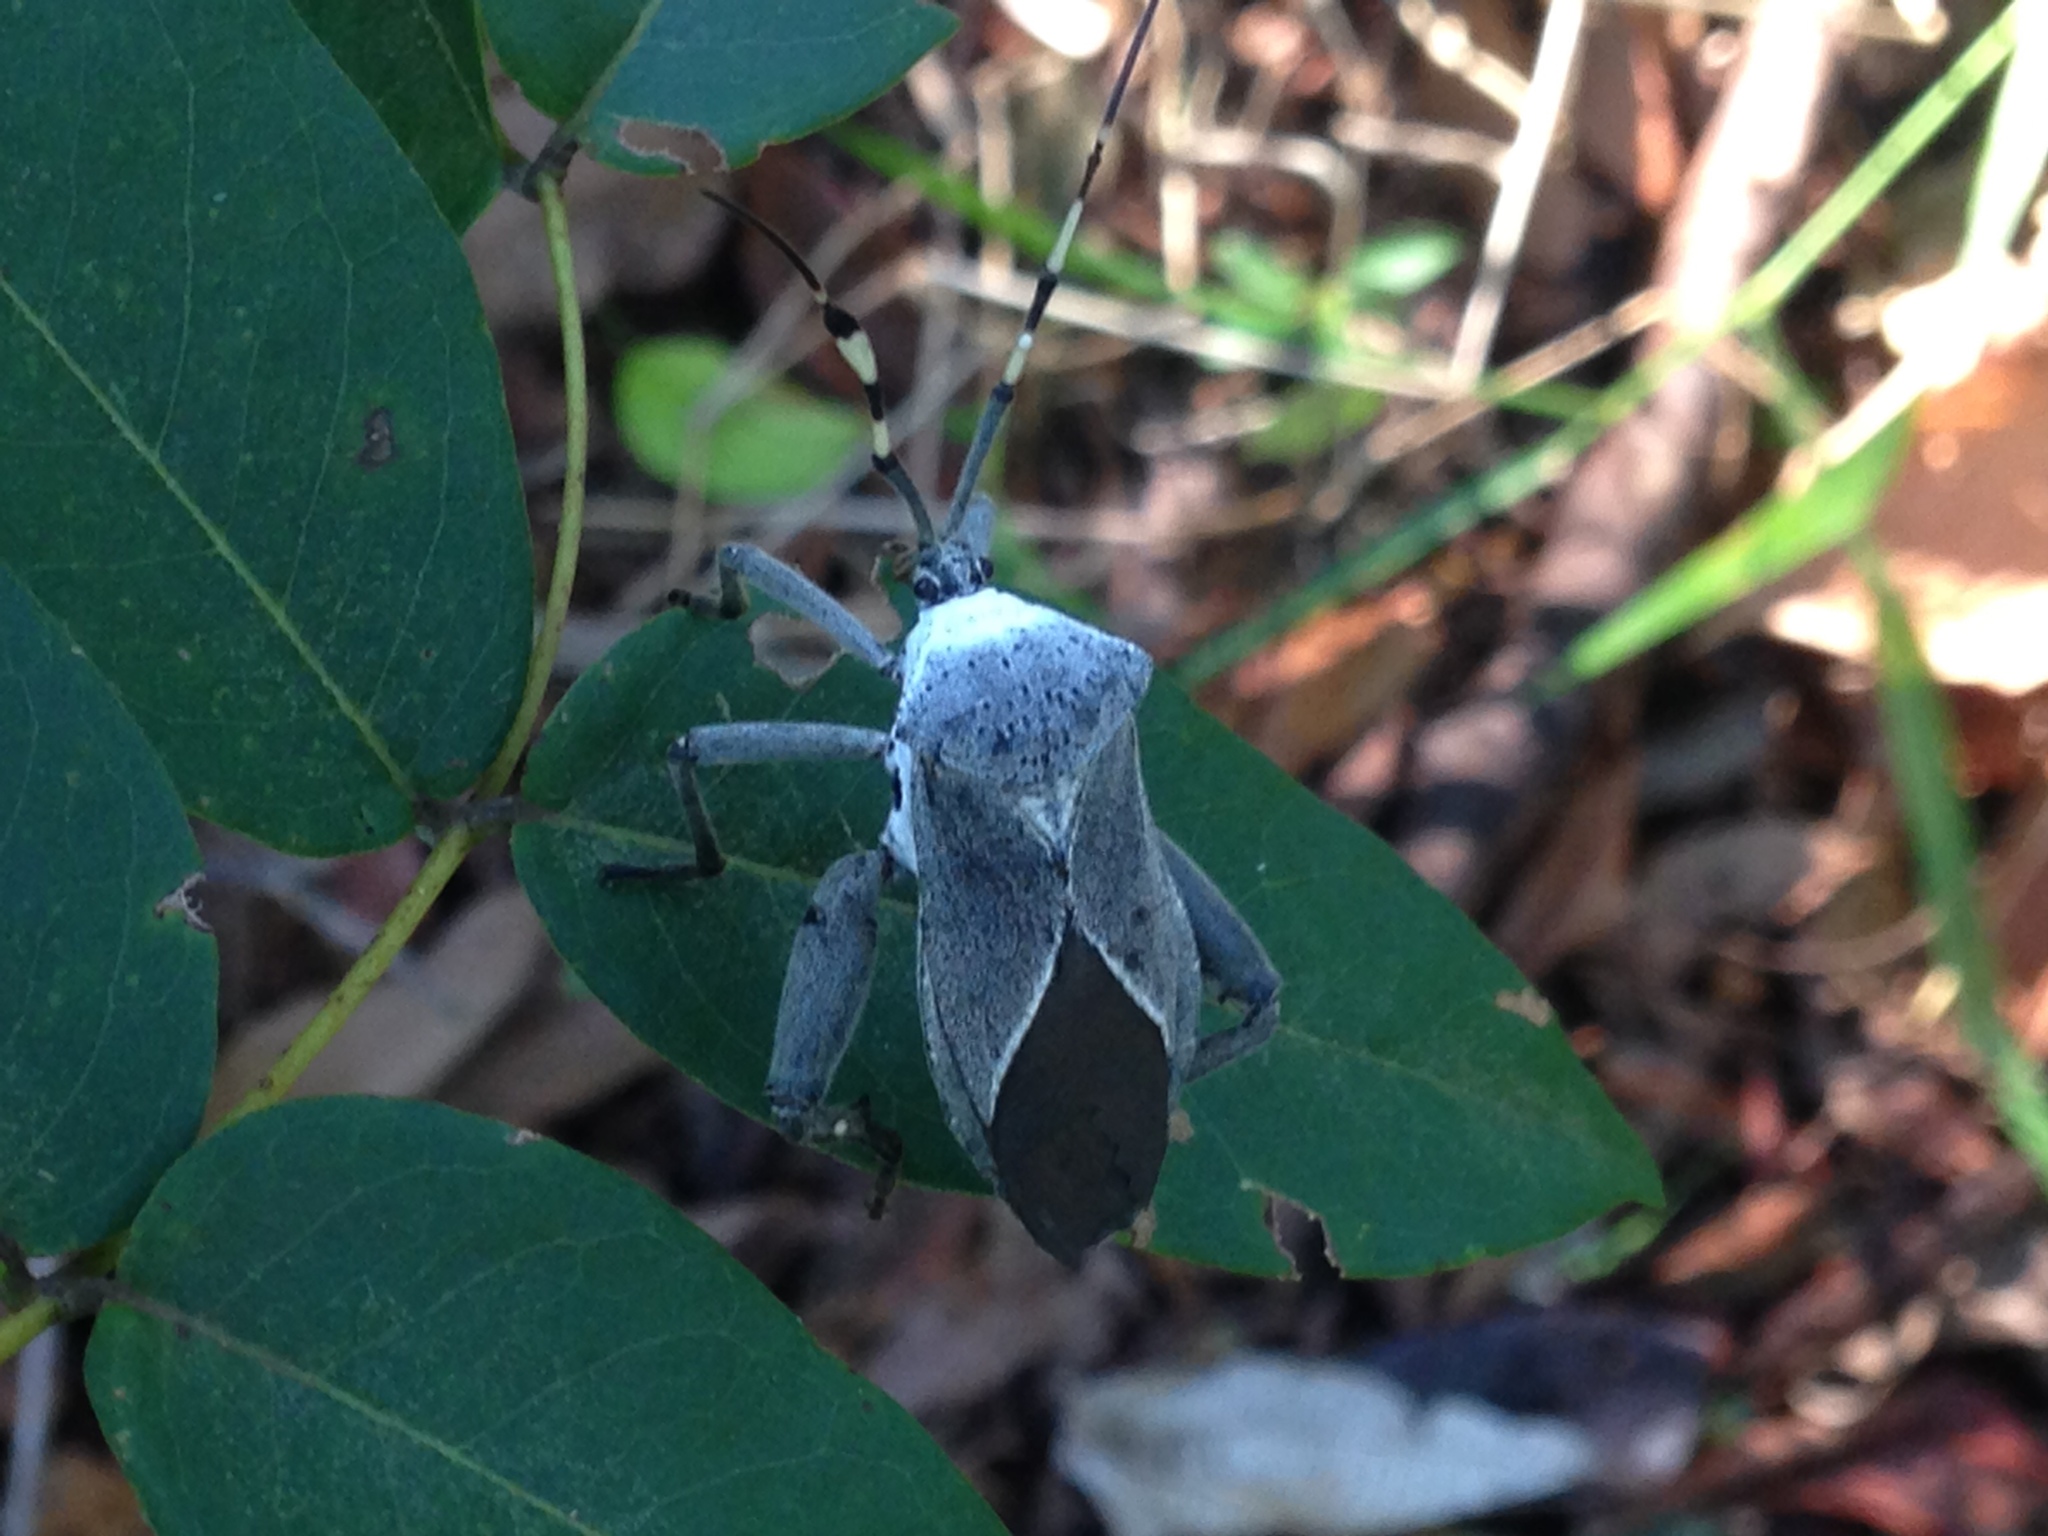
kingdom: Animalia
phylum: Arthropoda
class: Insecta
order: Hemiptera
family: Coreidae
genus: Molchina
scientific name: Molchina granulata
